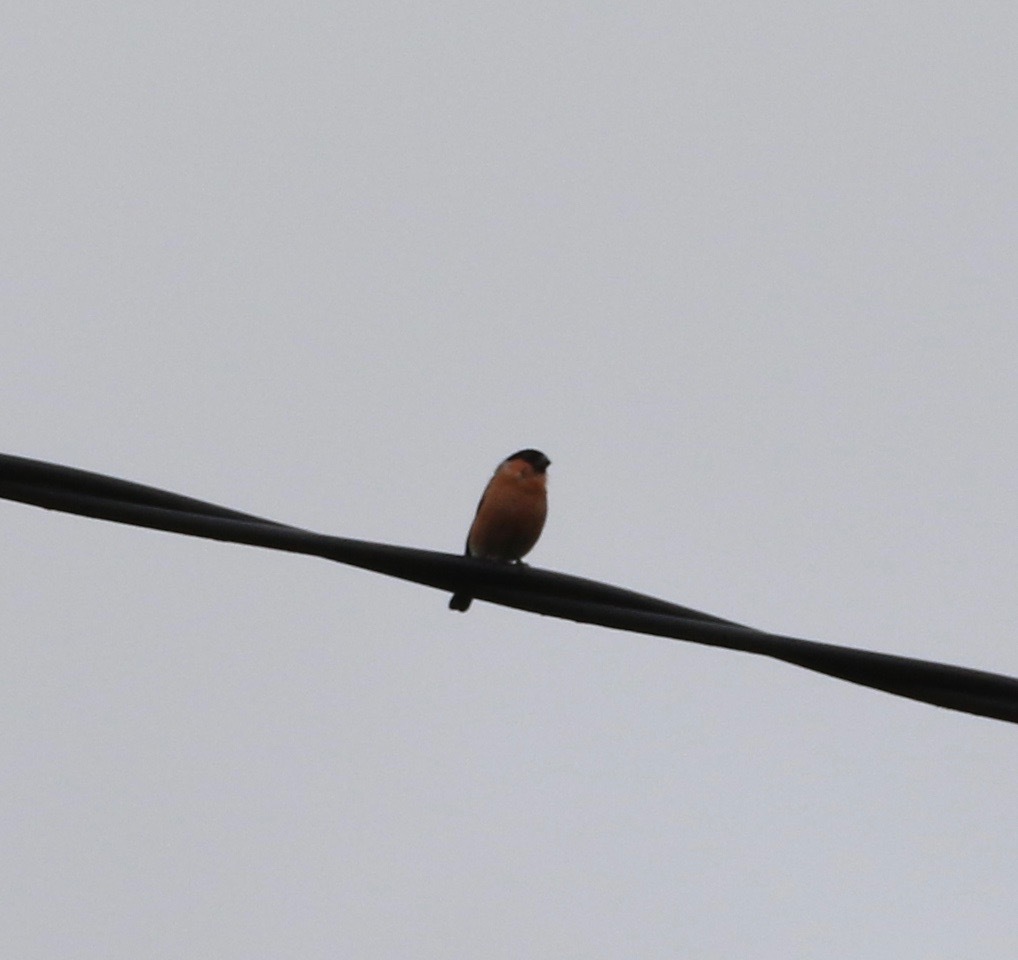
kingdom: Animalia
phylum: Chordata
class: Aves
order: Passeriformes
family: Fringillidae
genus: Pyrrhula
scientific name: Pyrrhula pyrrhula
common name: Eurasian bullfinch
